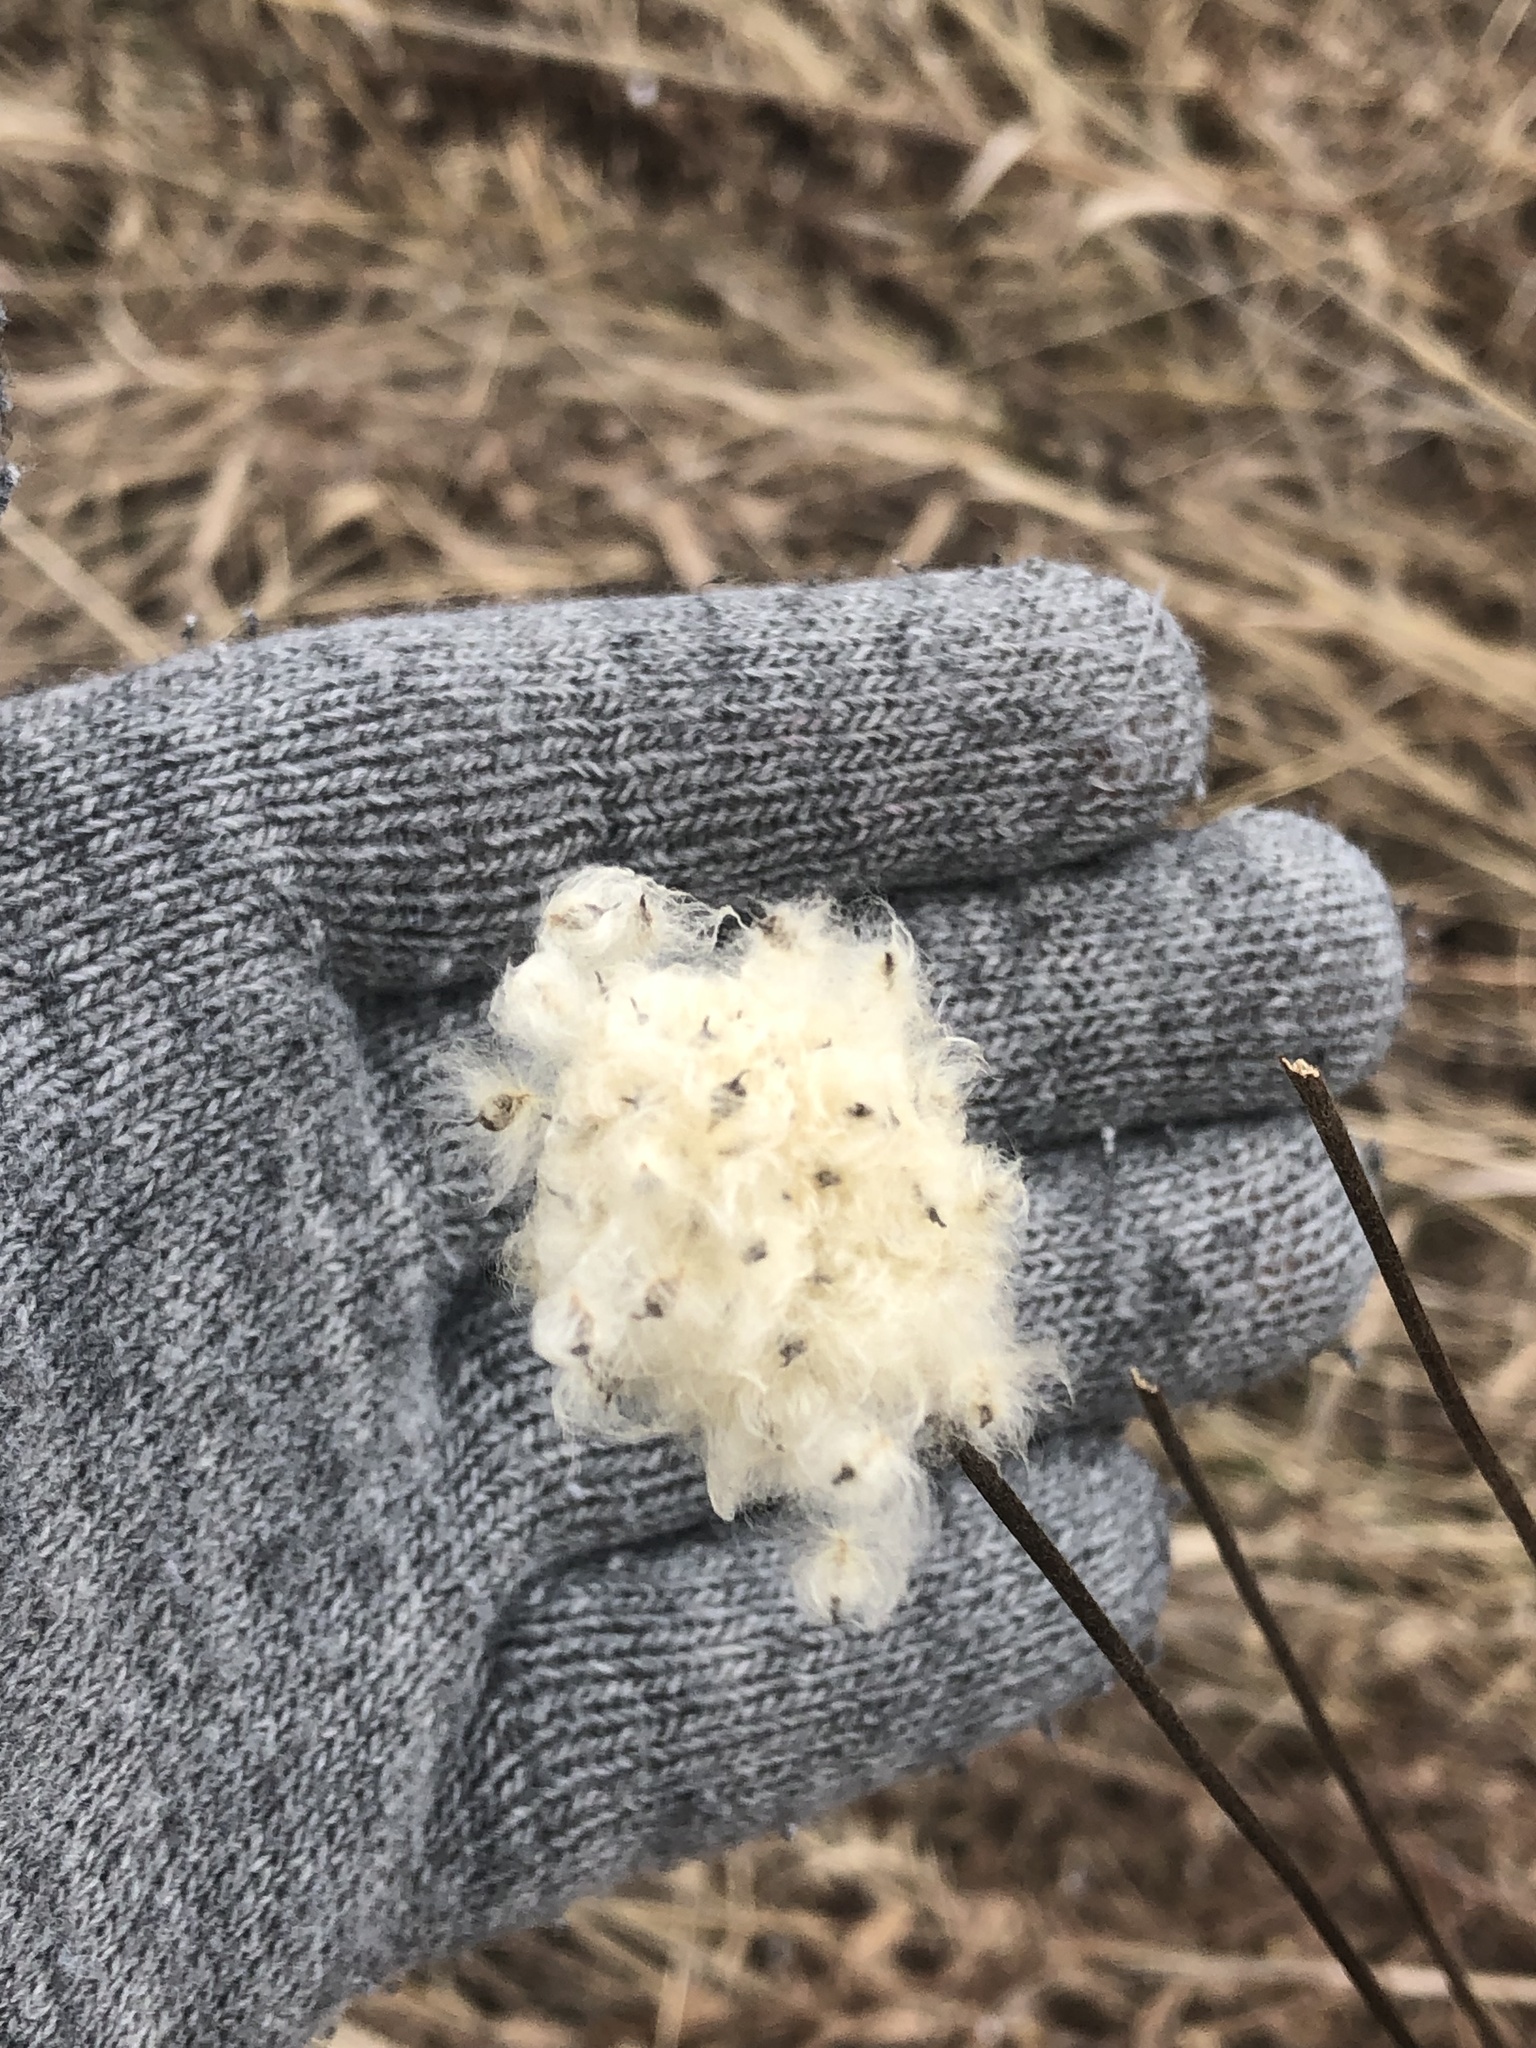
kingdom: Plantae
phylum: Tracheophyta
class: Magnoliopsida
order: Ranunculales
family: Ranunculaceae
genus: Anemone
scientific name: Anemone virginiana
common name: Tall anemone
